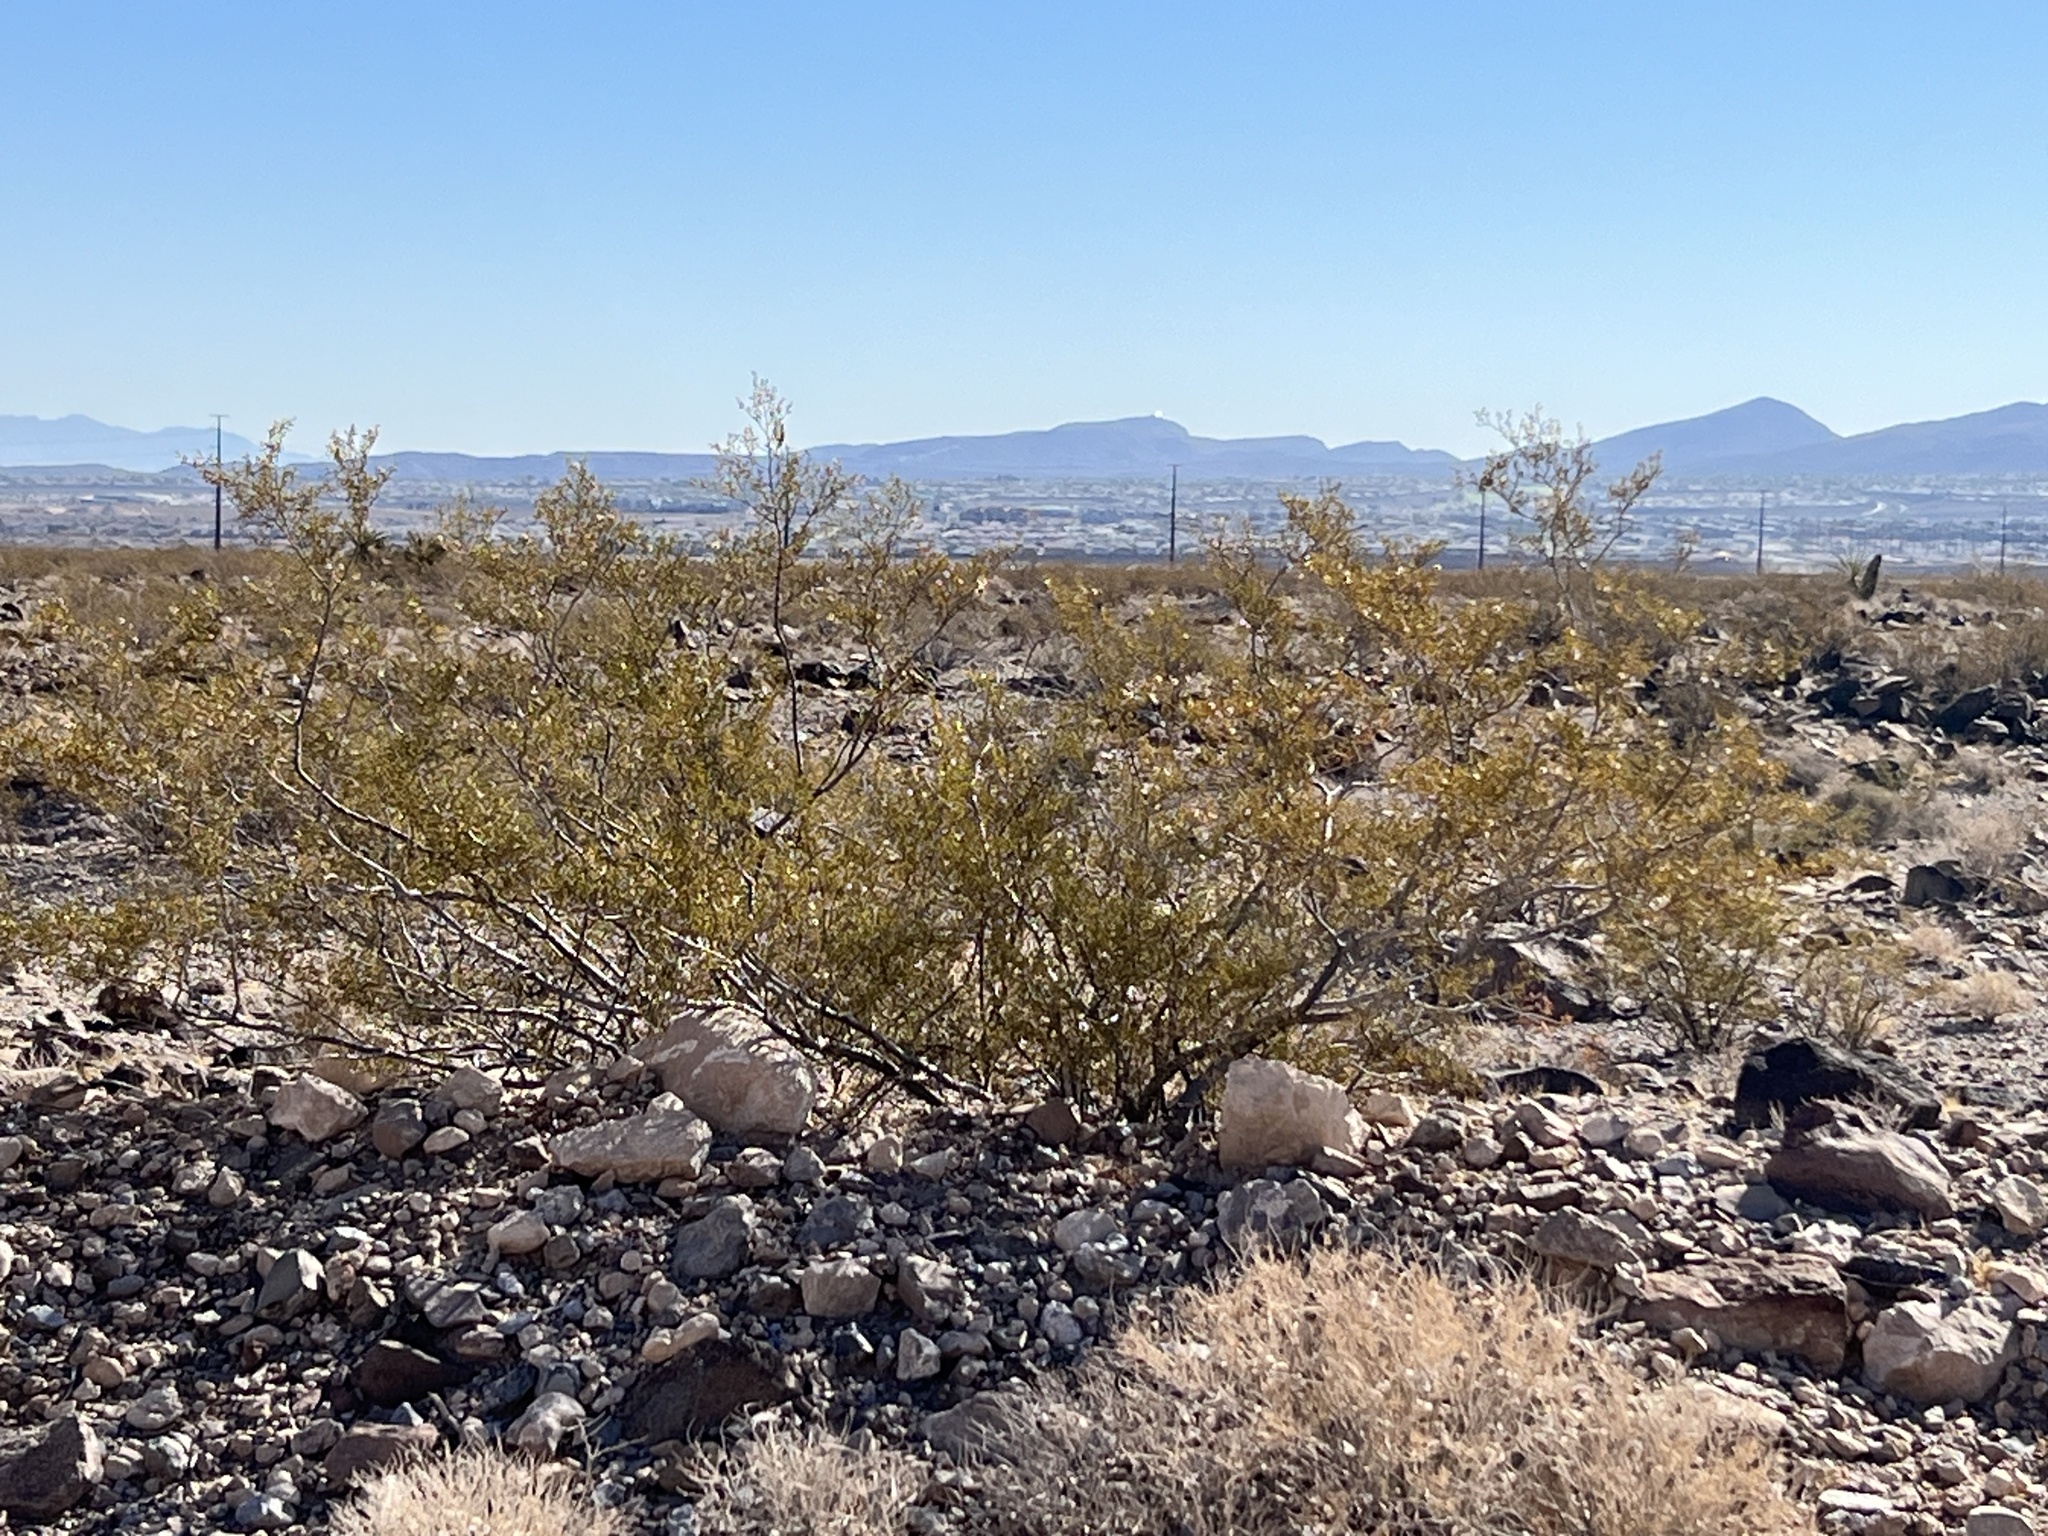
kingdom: Plantae
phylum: Tracheophyta
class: Magnoliopsida
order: Zygophyllales
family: Zygophyllaceae
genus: Larrea
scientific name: Larrea tridentata
